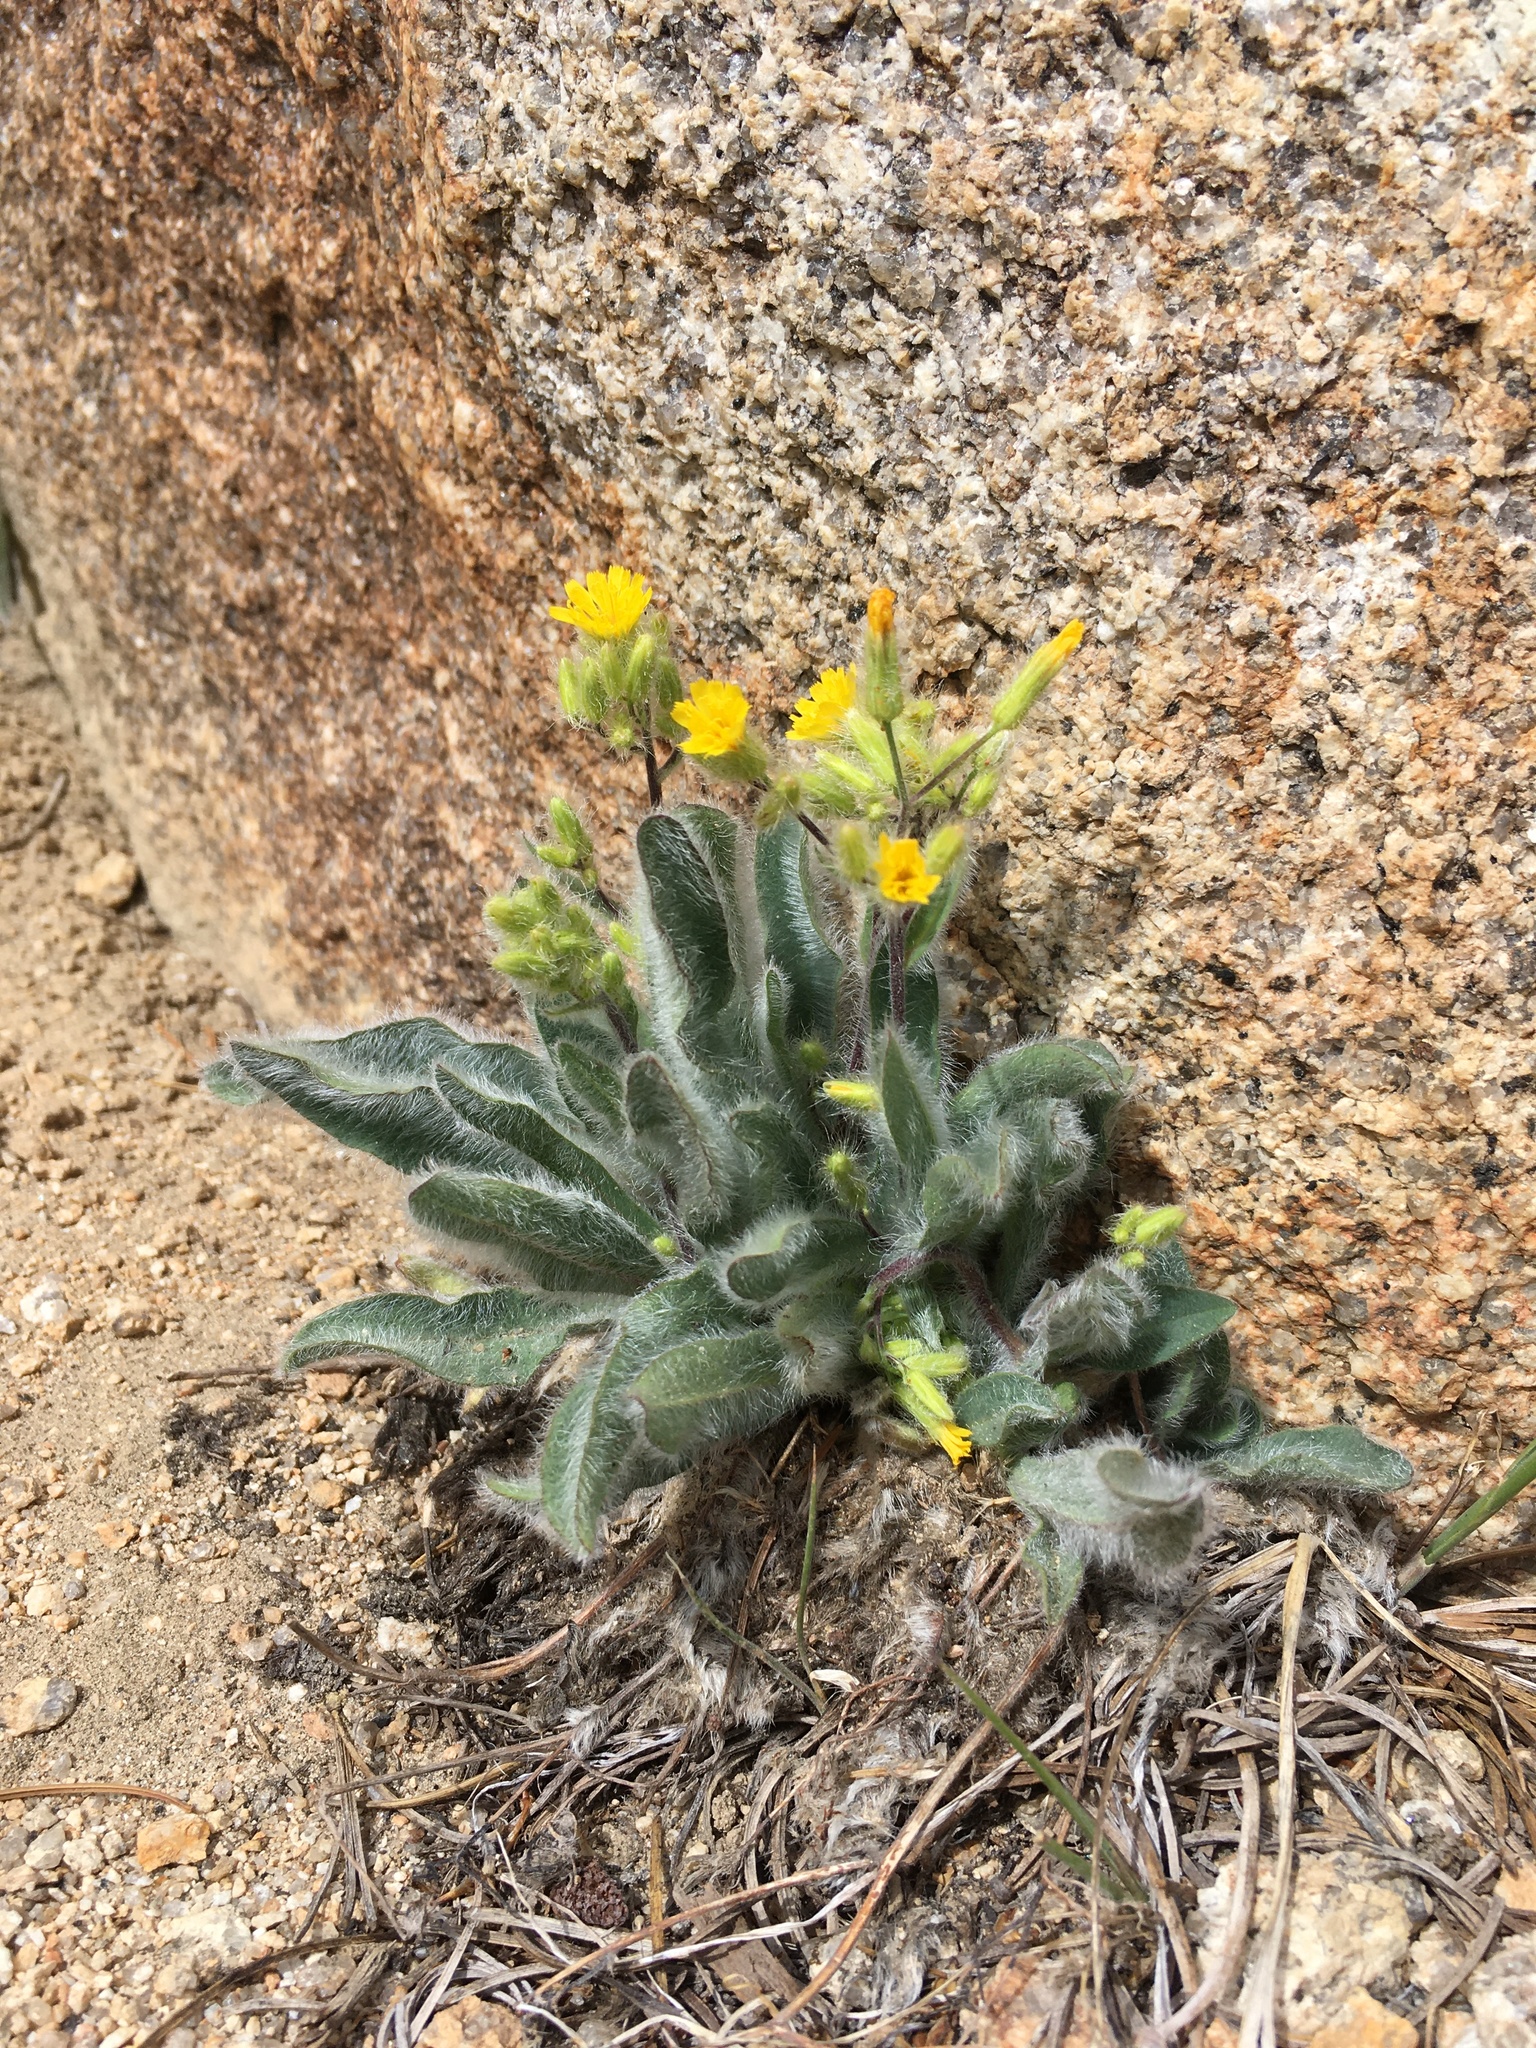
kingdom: Plantae
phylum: Tracheophyta
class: Magnoliopsida
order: Asterales
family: Asteraceae
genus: Hieracium
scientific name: Hieracium horridum
